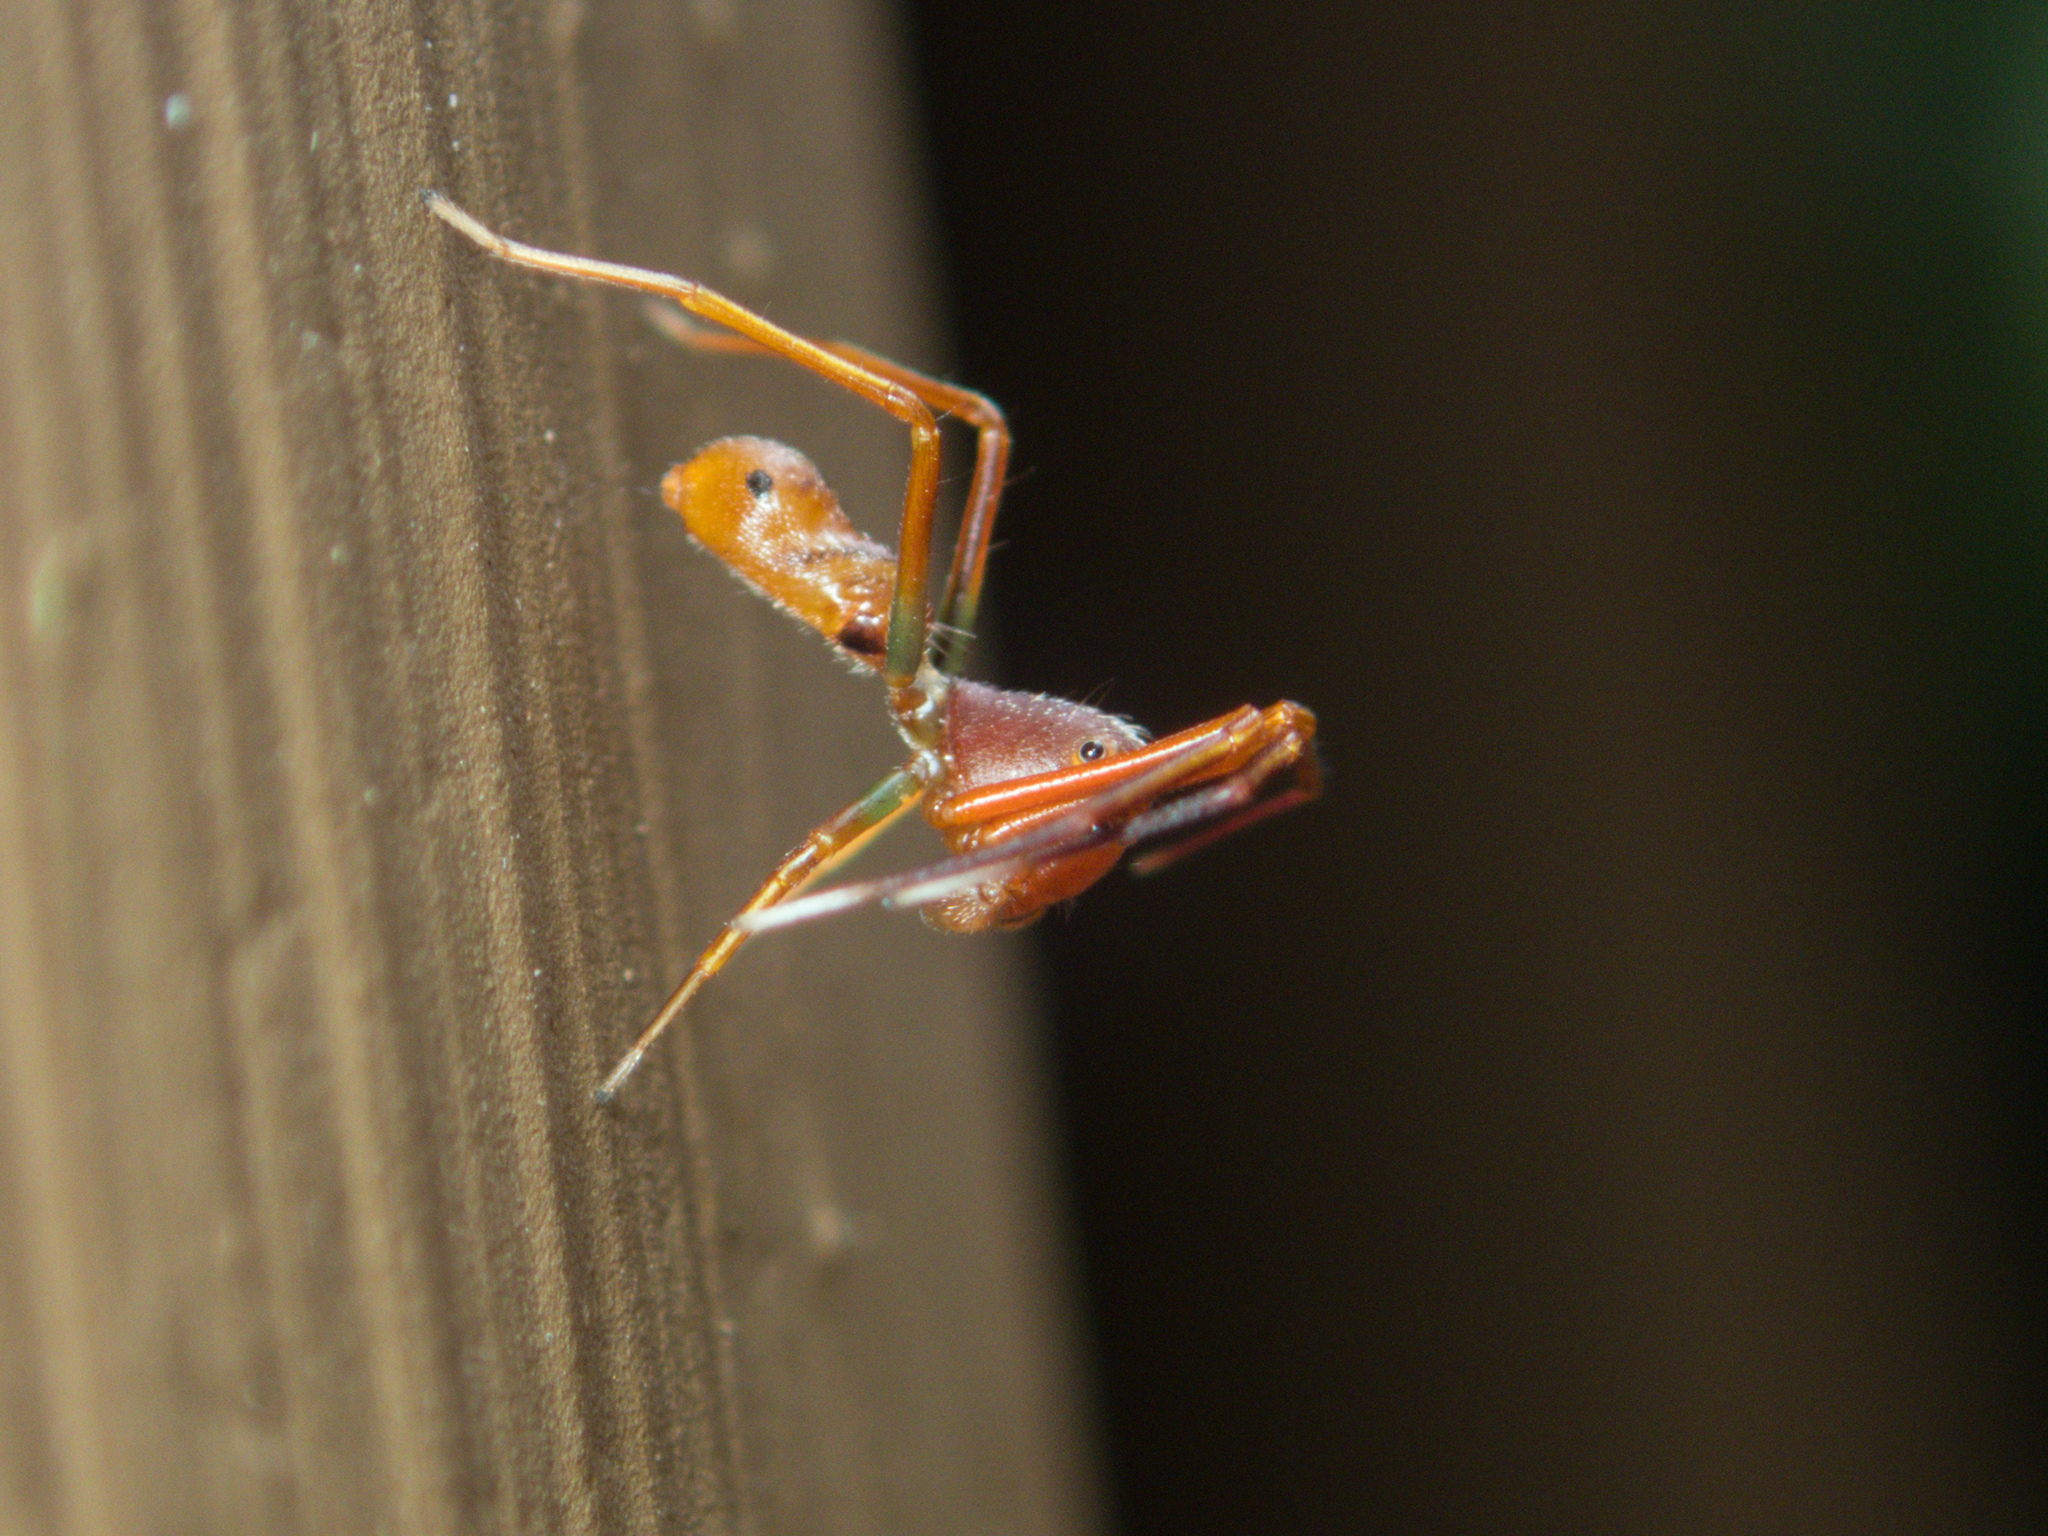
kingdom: Animalia
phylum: Arthropoda
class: Arachnida
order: Araneae
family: Thomisidae
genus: Amyciaea
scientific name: Amyciaea forticeps
